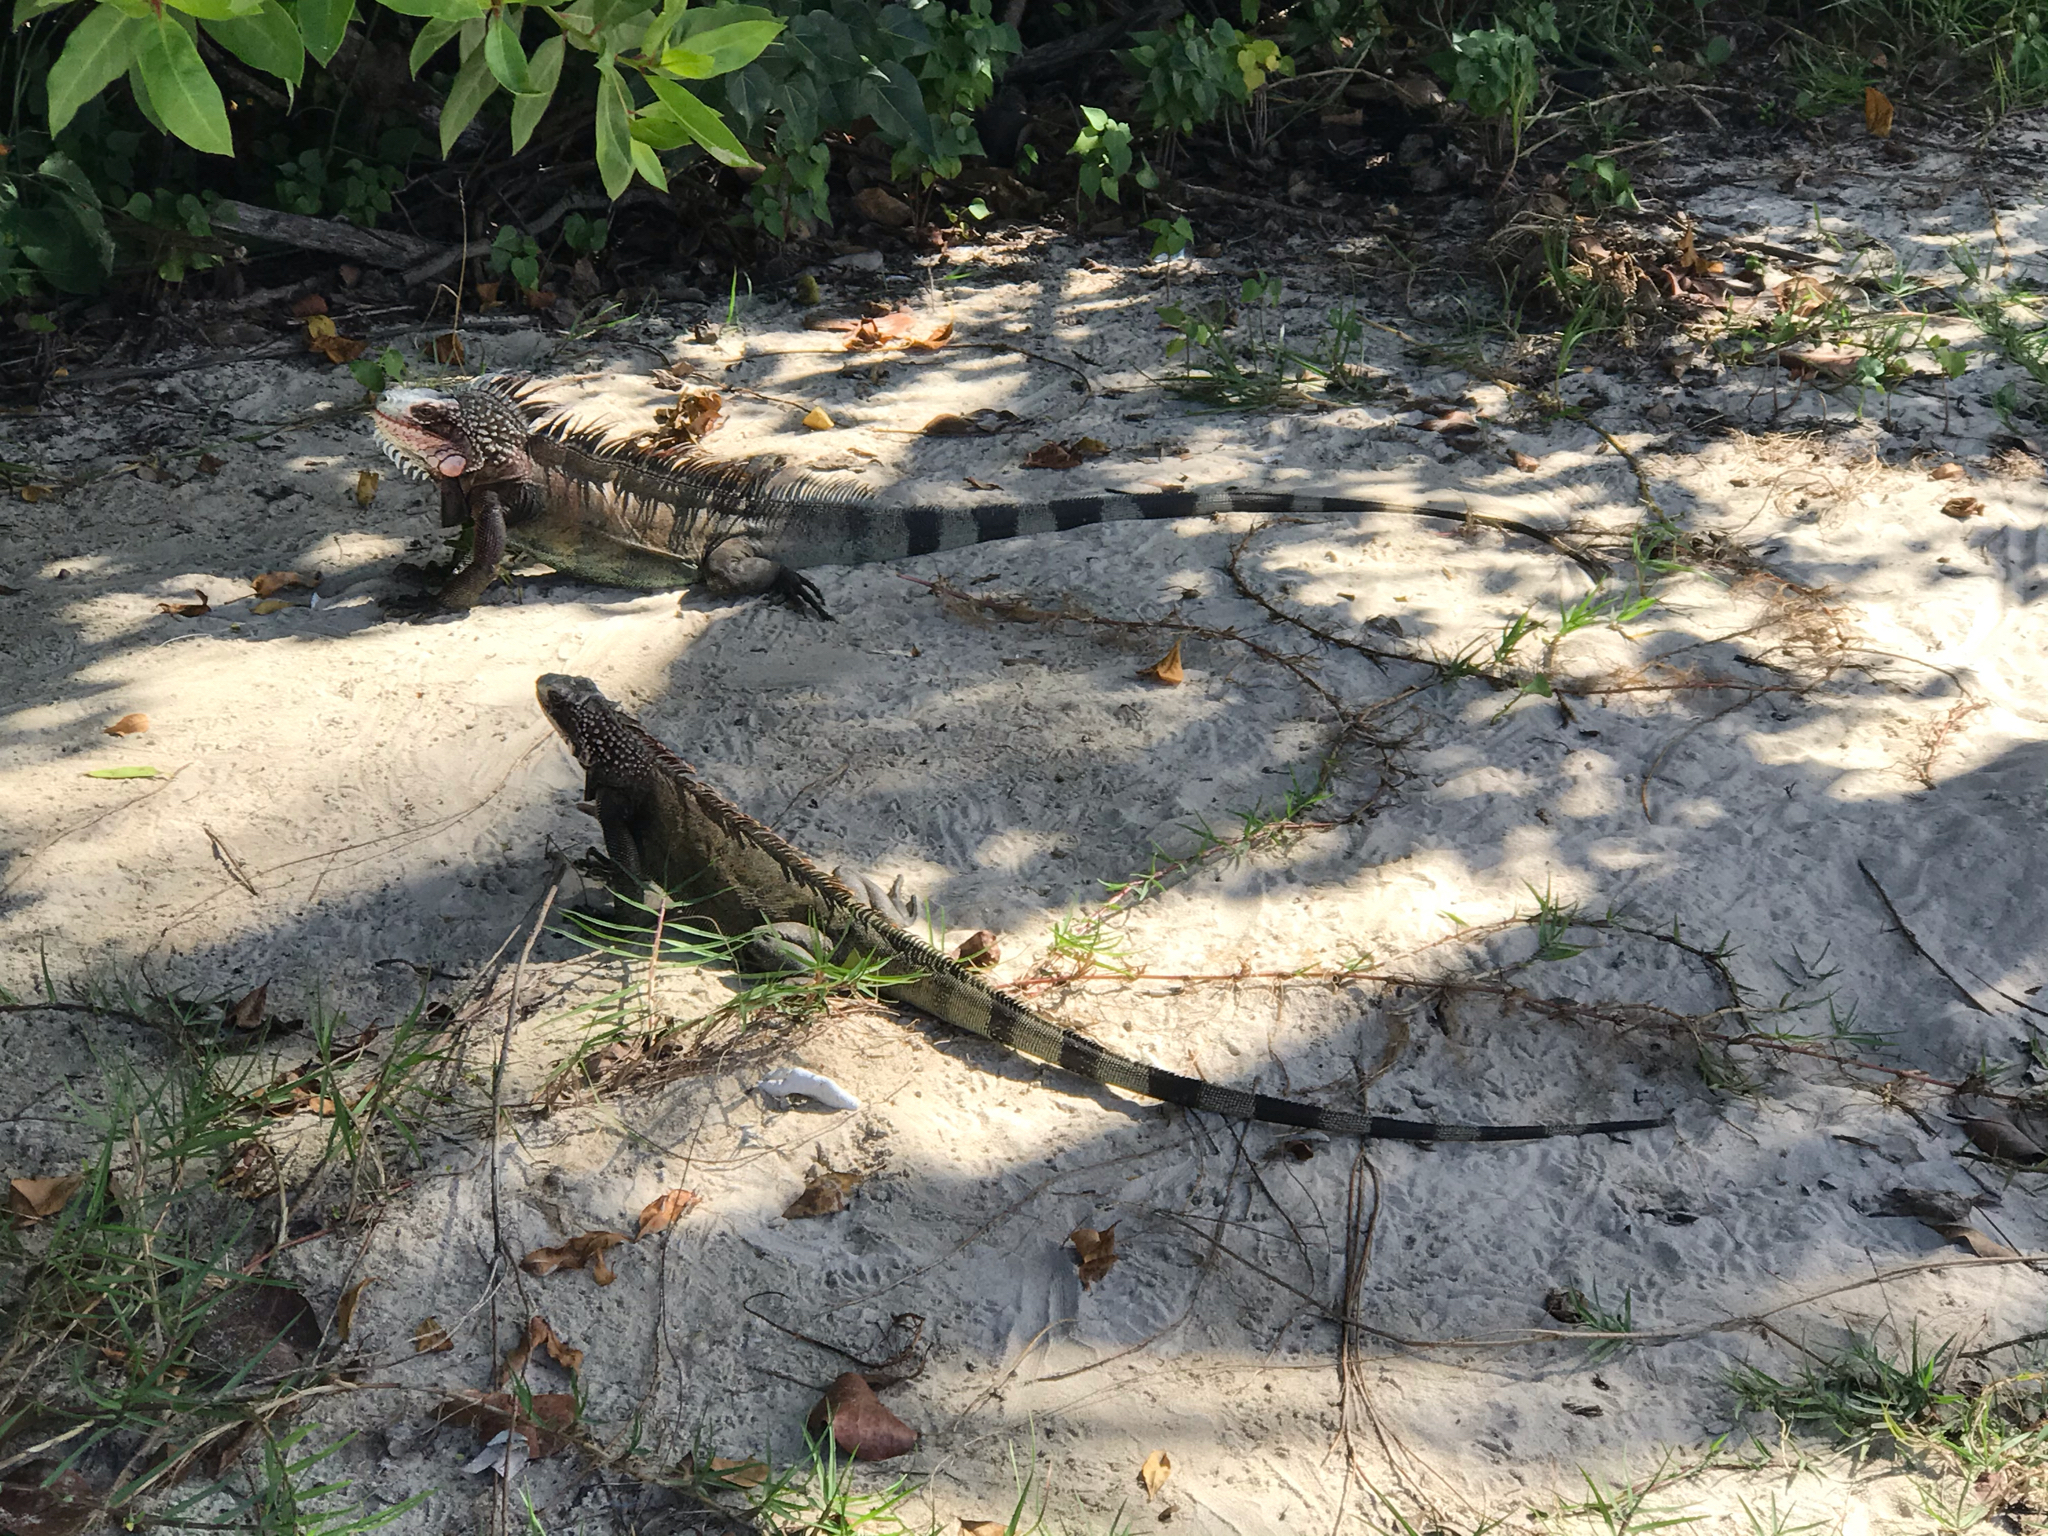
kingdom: Animalia
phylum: Chordata
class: Squamata
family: Iguanidae
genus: Iguana
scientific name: Iguana iguana
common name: Green iguana
